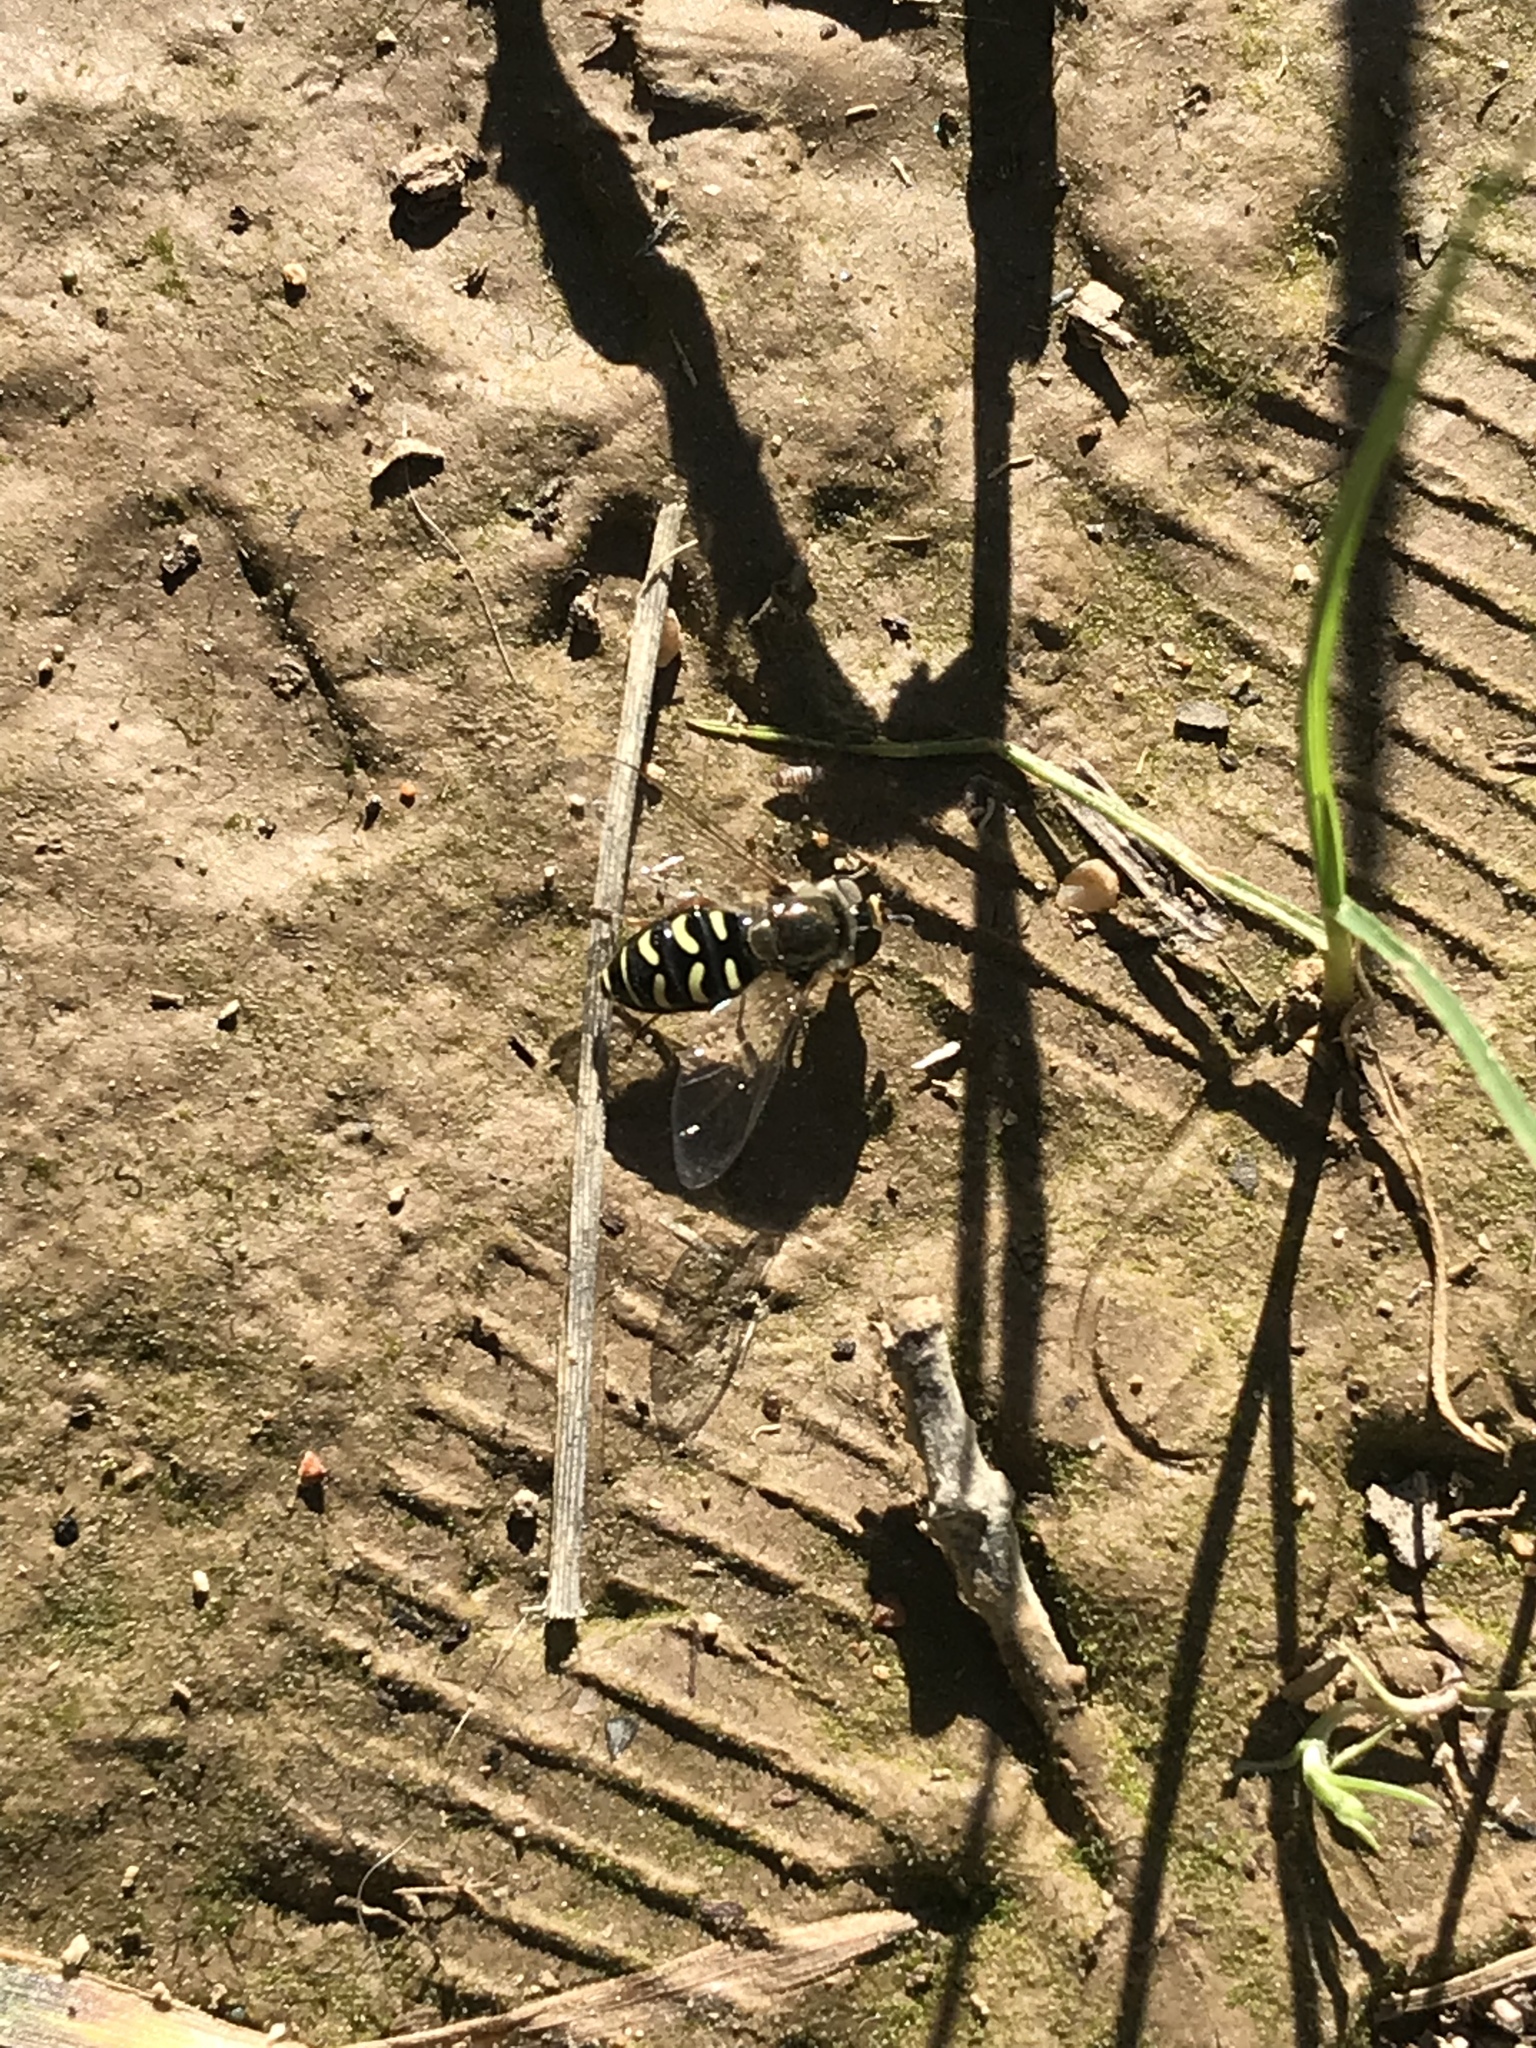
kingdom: Animalia
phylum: Arthropoda
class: Insecta
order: Diptera
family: Syrphidae
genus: Eupeodes
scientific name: Eupeodes volucris
